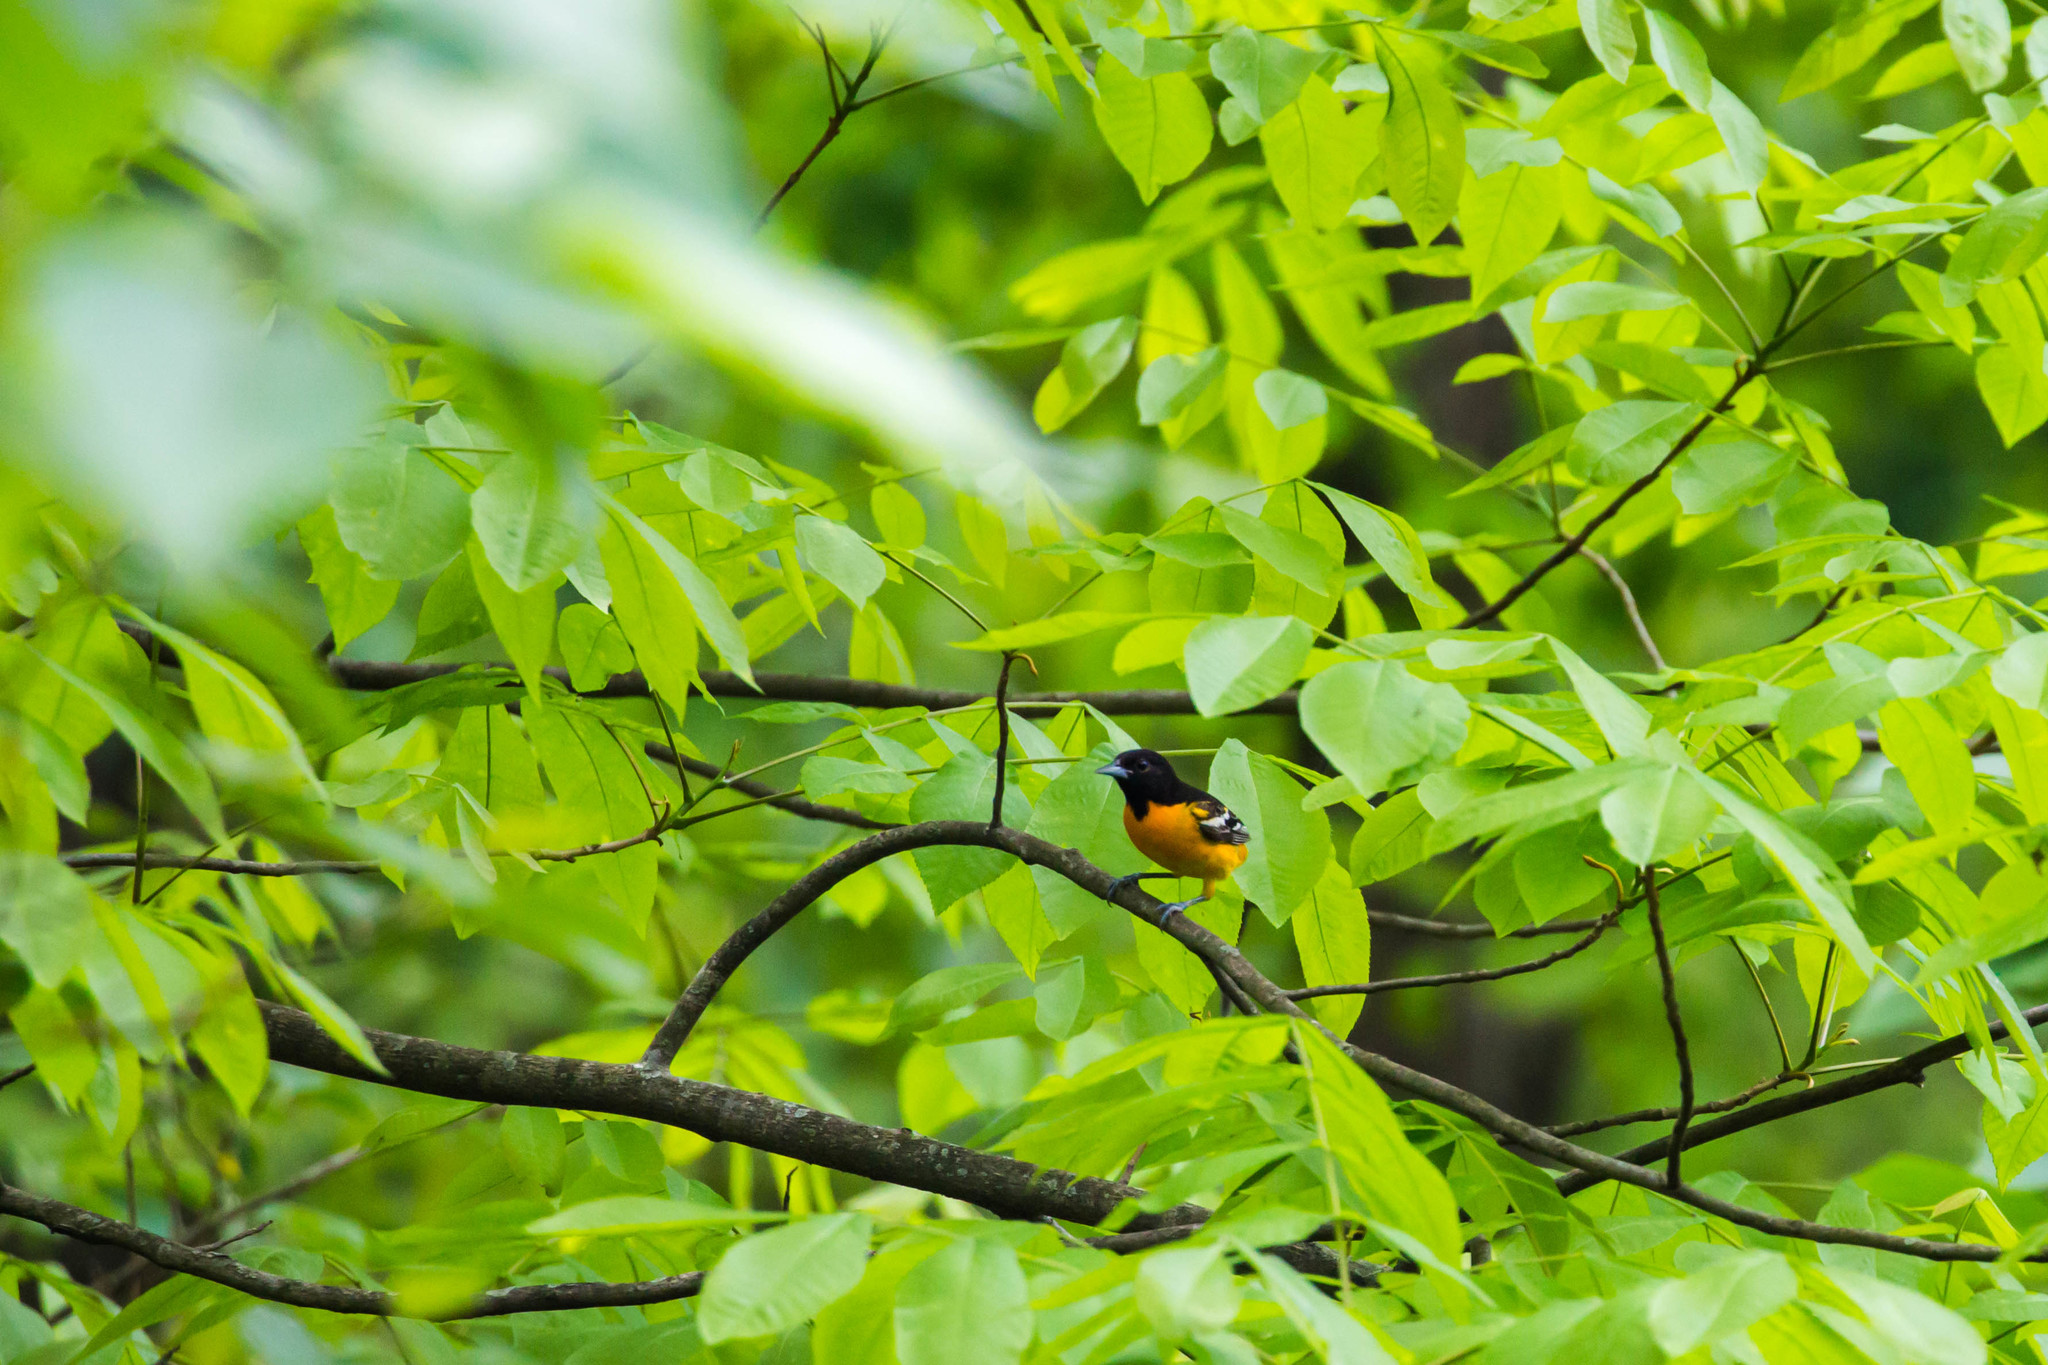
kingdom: Animalia
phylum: Chordata
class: Aves
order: Passeriformes
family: Icteridae
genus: Icterus
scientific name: Icterus galbula
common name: Baltimore oriole
